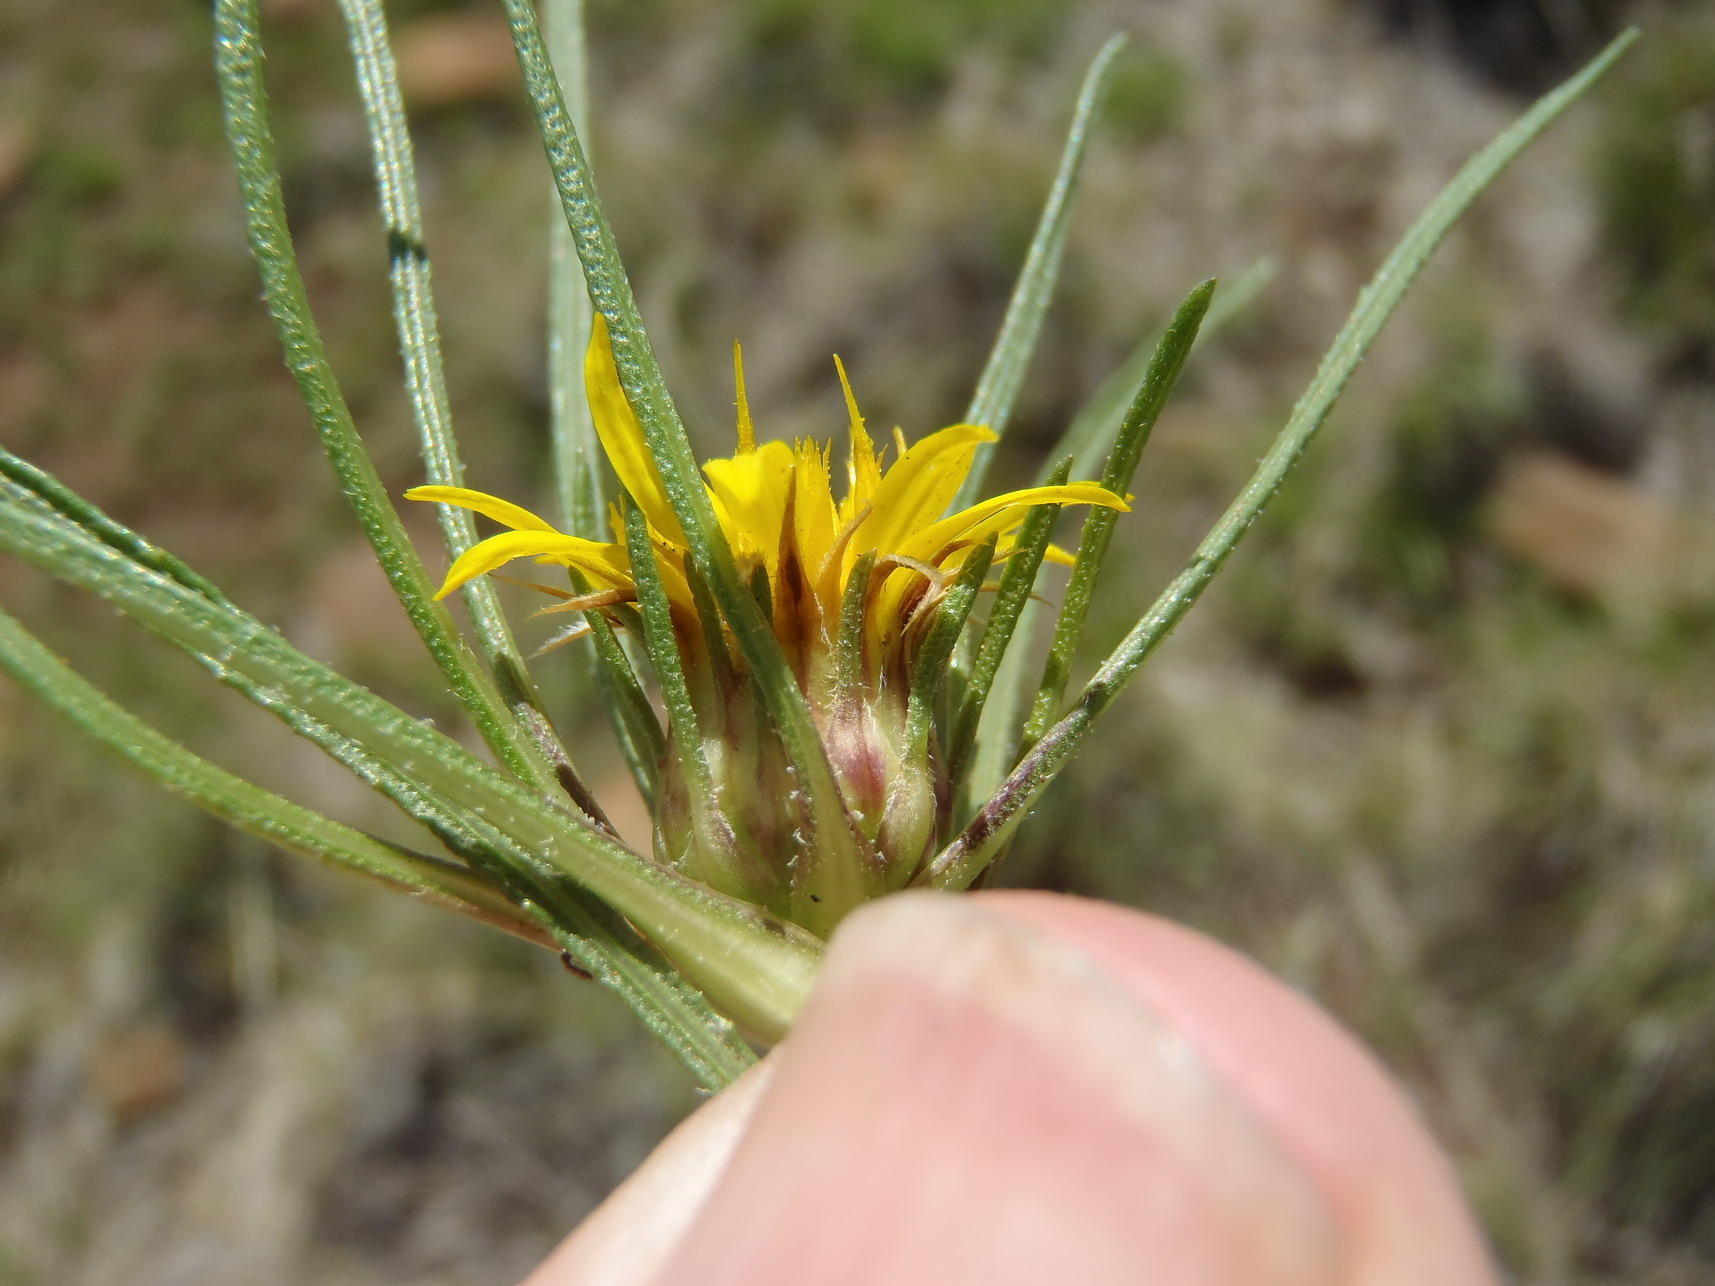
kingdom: Plantae
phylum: Tracheophyta
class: Magnoliopsida
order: Asterales
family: Asteraceae
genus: Geigeria
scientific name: Geigeria ornativa
